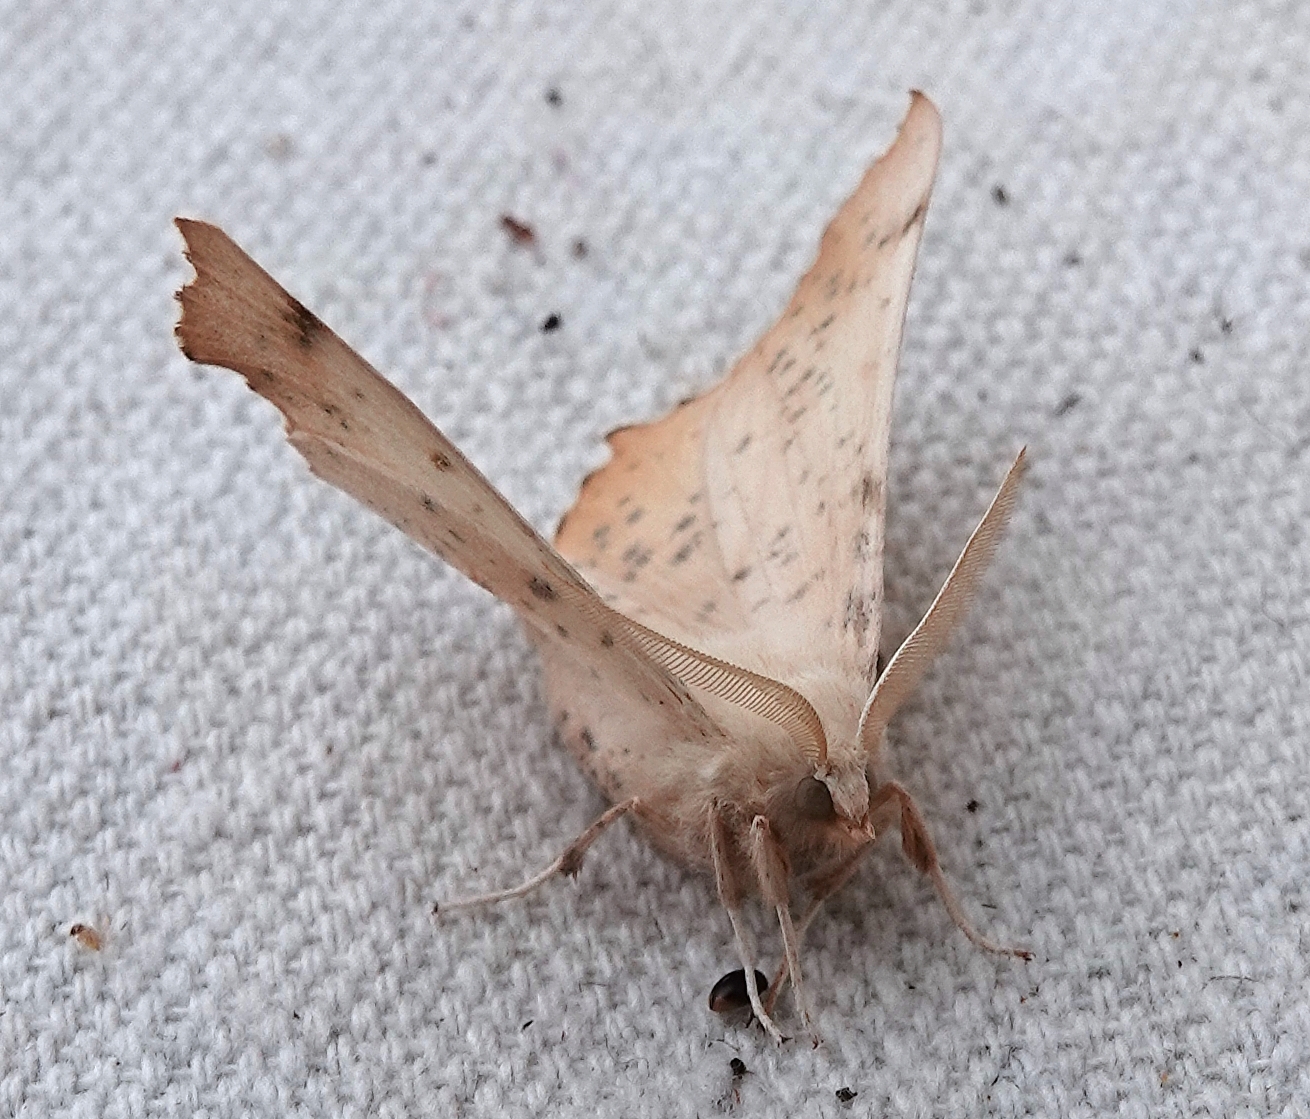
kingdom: Animalia
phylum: Arthropoda
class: Insecta
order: Lepidoptera
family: Geometridae
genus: Ennomos
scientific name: Ennomos magnaria
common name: Maple spanworm
